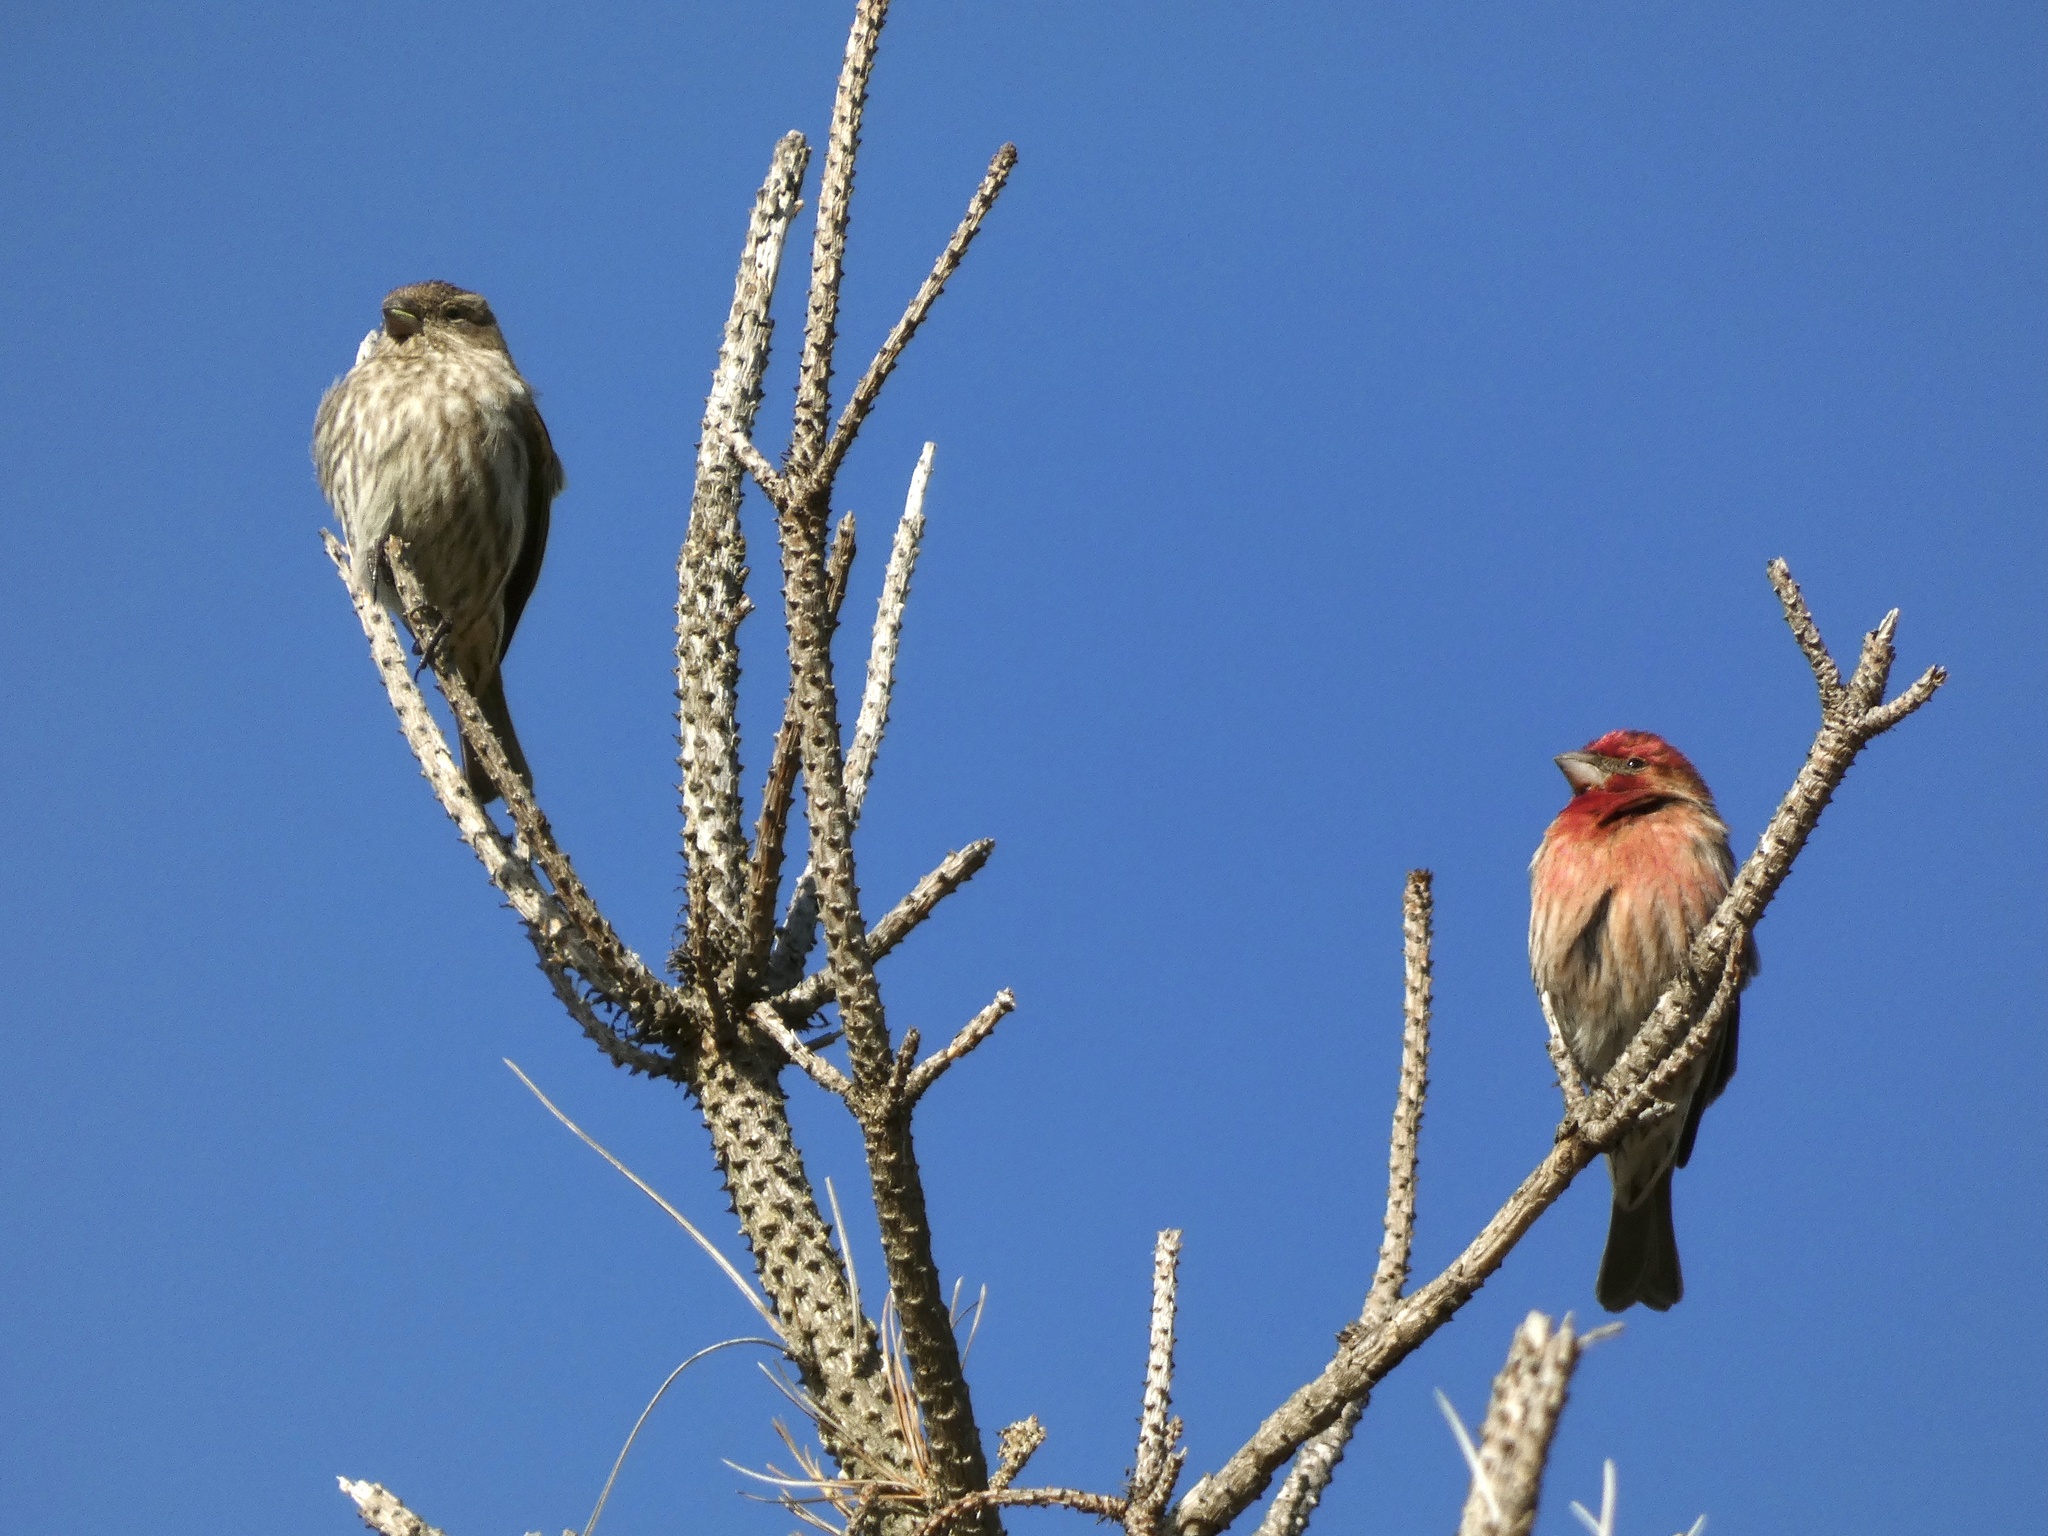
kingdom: Animalia
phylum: Chordata
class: Aves
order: Passeriformes
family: Fringillidae
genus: Haemorhous
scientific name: Haemorhous mexicanus
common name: House finch
